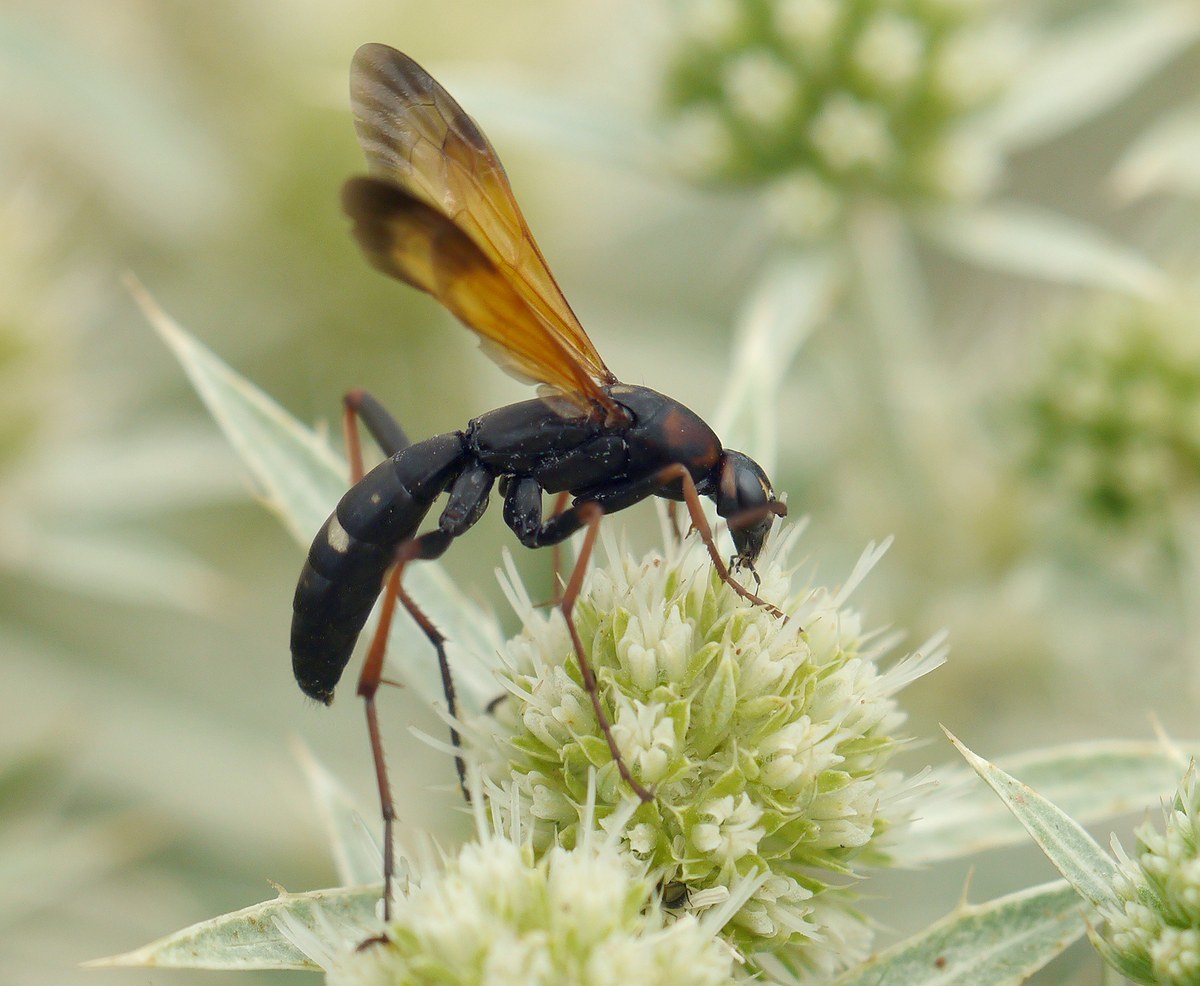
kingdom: Animalia
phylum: Arthropoda
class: Insecta
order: Hymenoptera
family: Pompilidae
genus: Cryptocheilus
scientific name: Cryptocheilus octomaculatus
